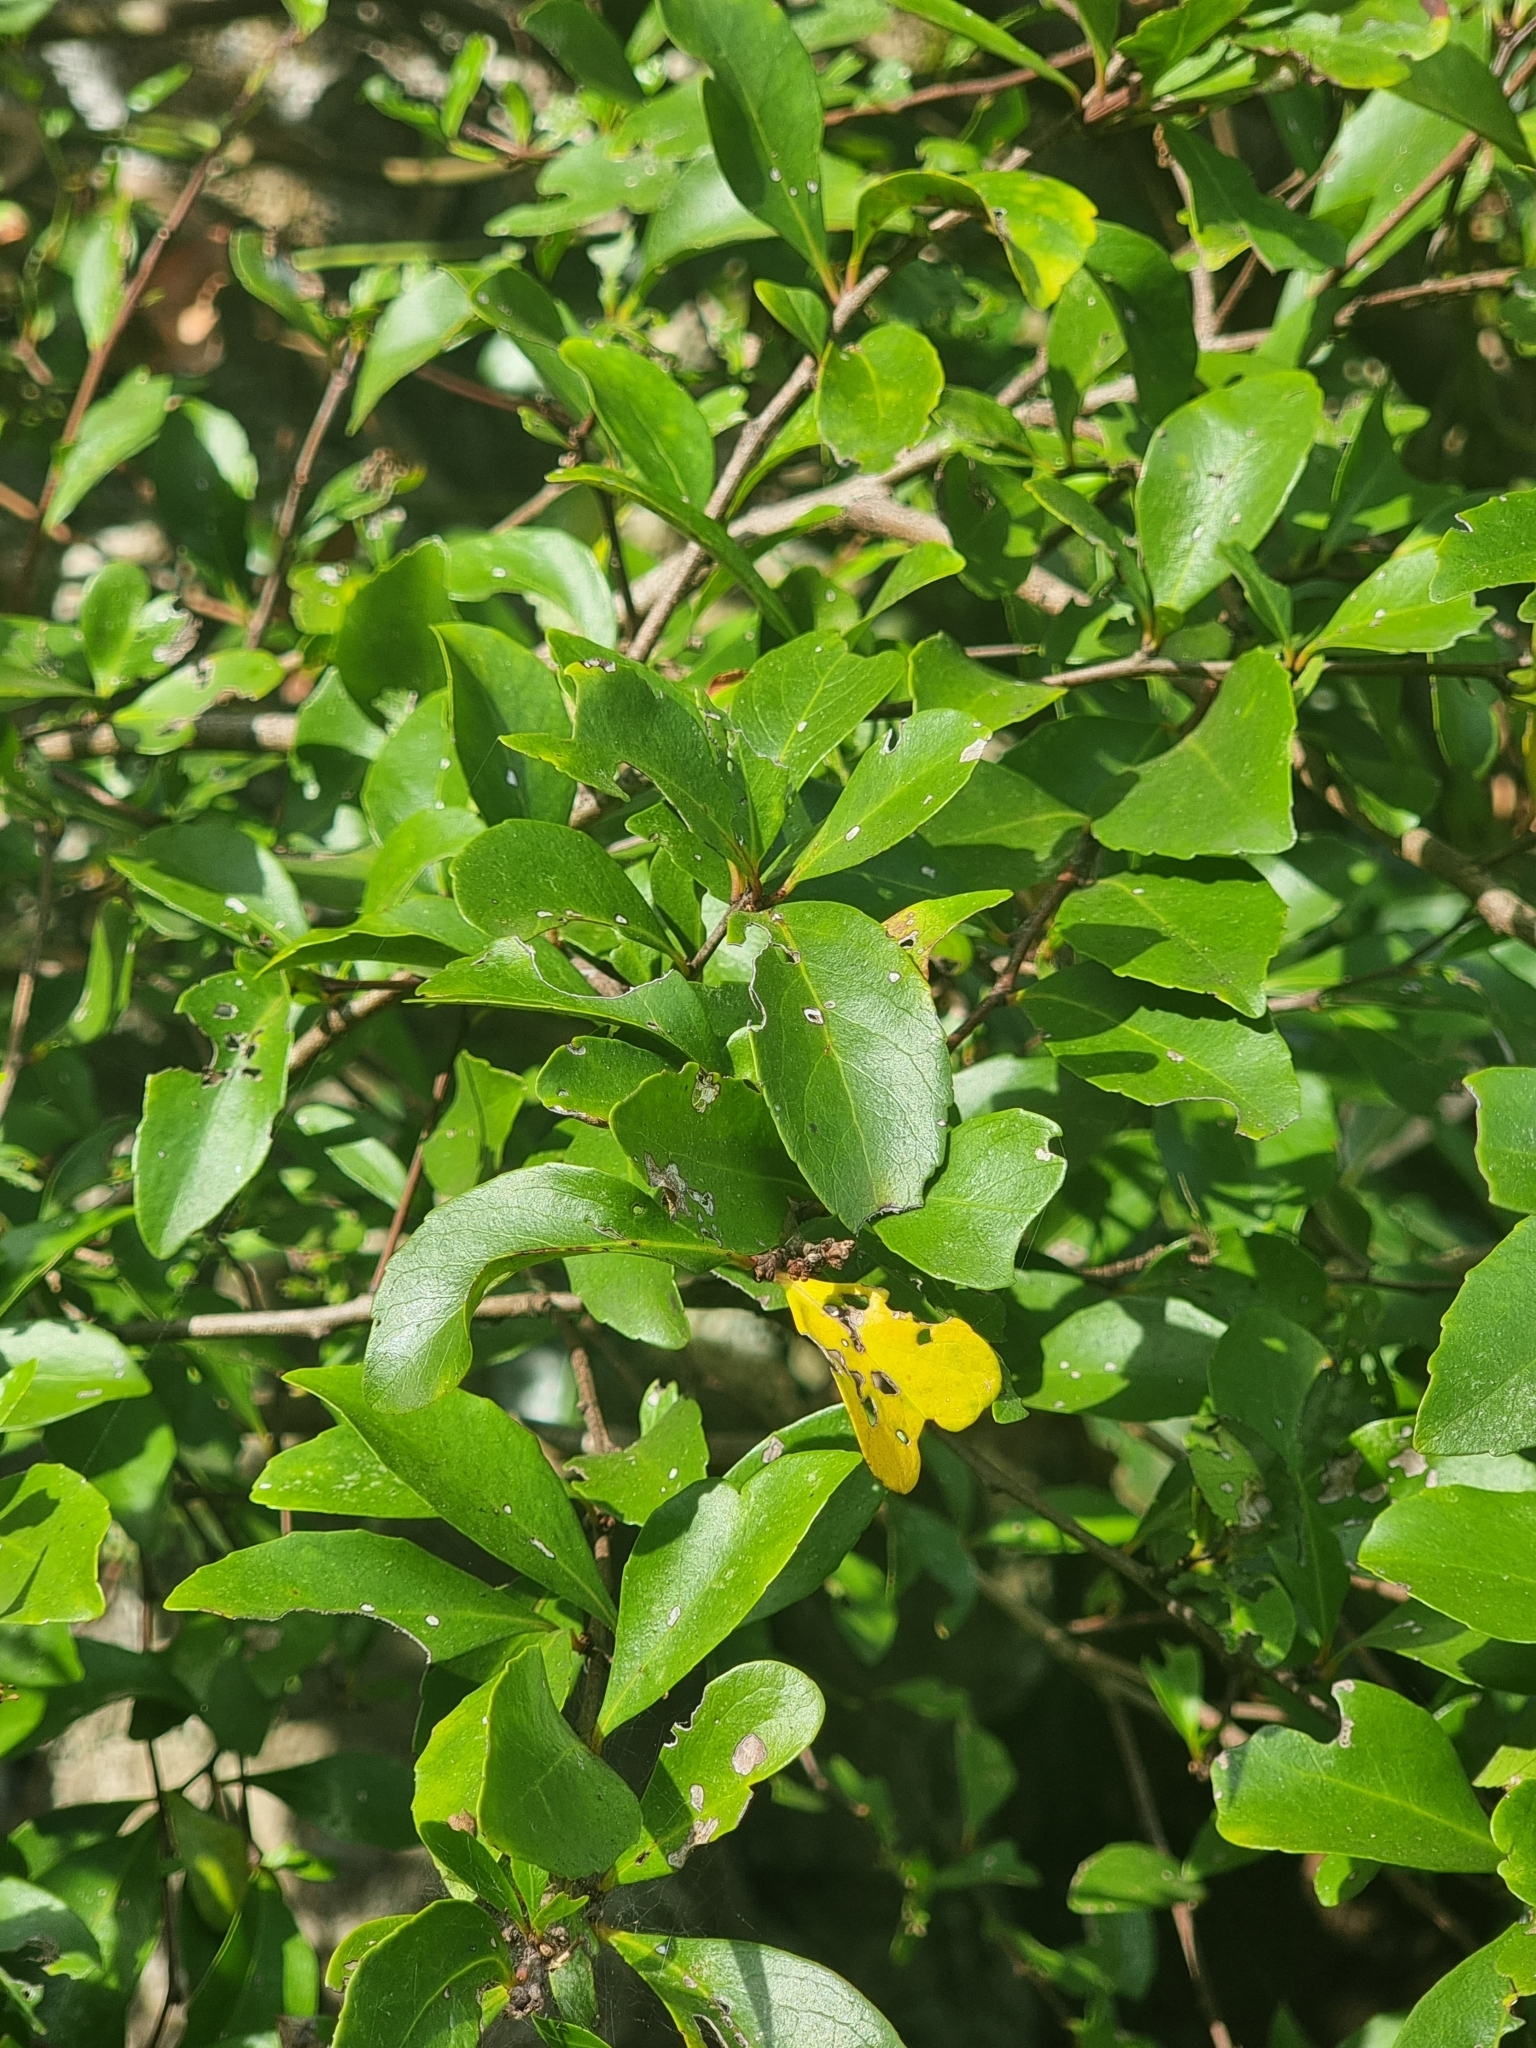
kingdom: Plantae
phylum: Tracheophyta
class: Magnoliopsida
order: Celastrales
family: Celastraceae
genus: Gymnosporia
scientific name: Gymnosporia dryandri
